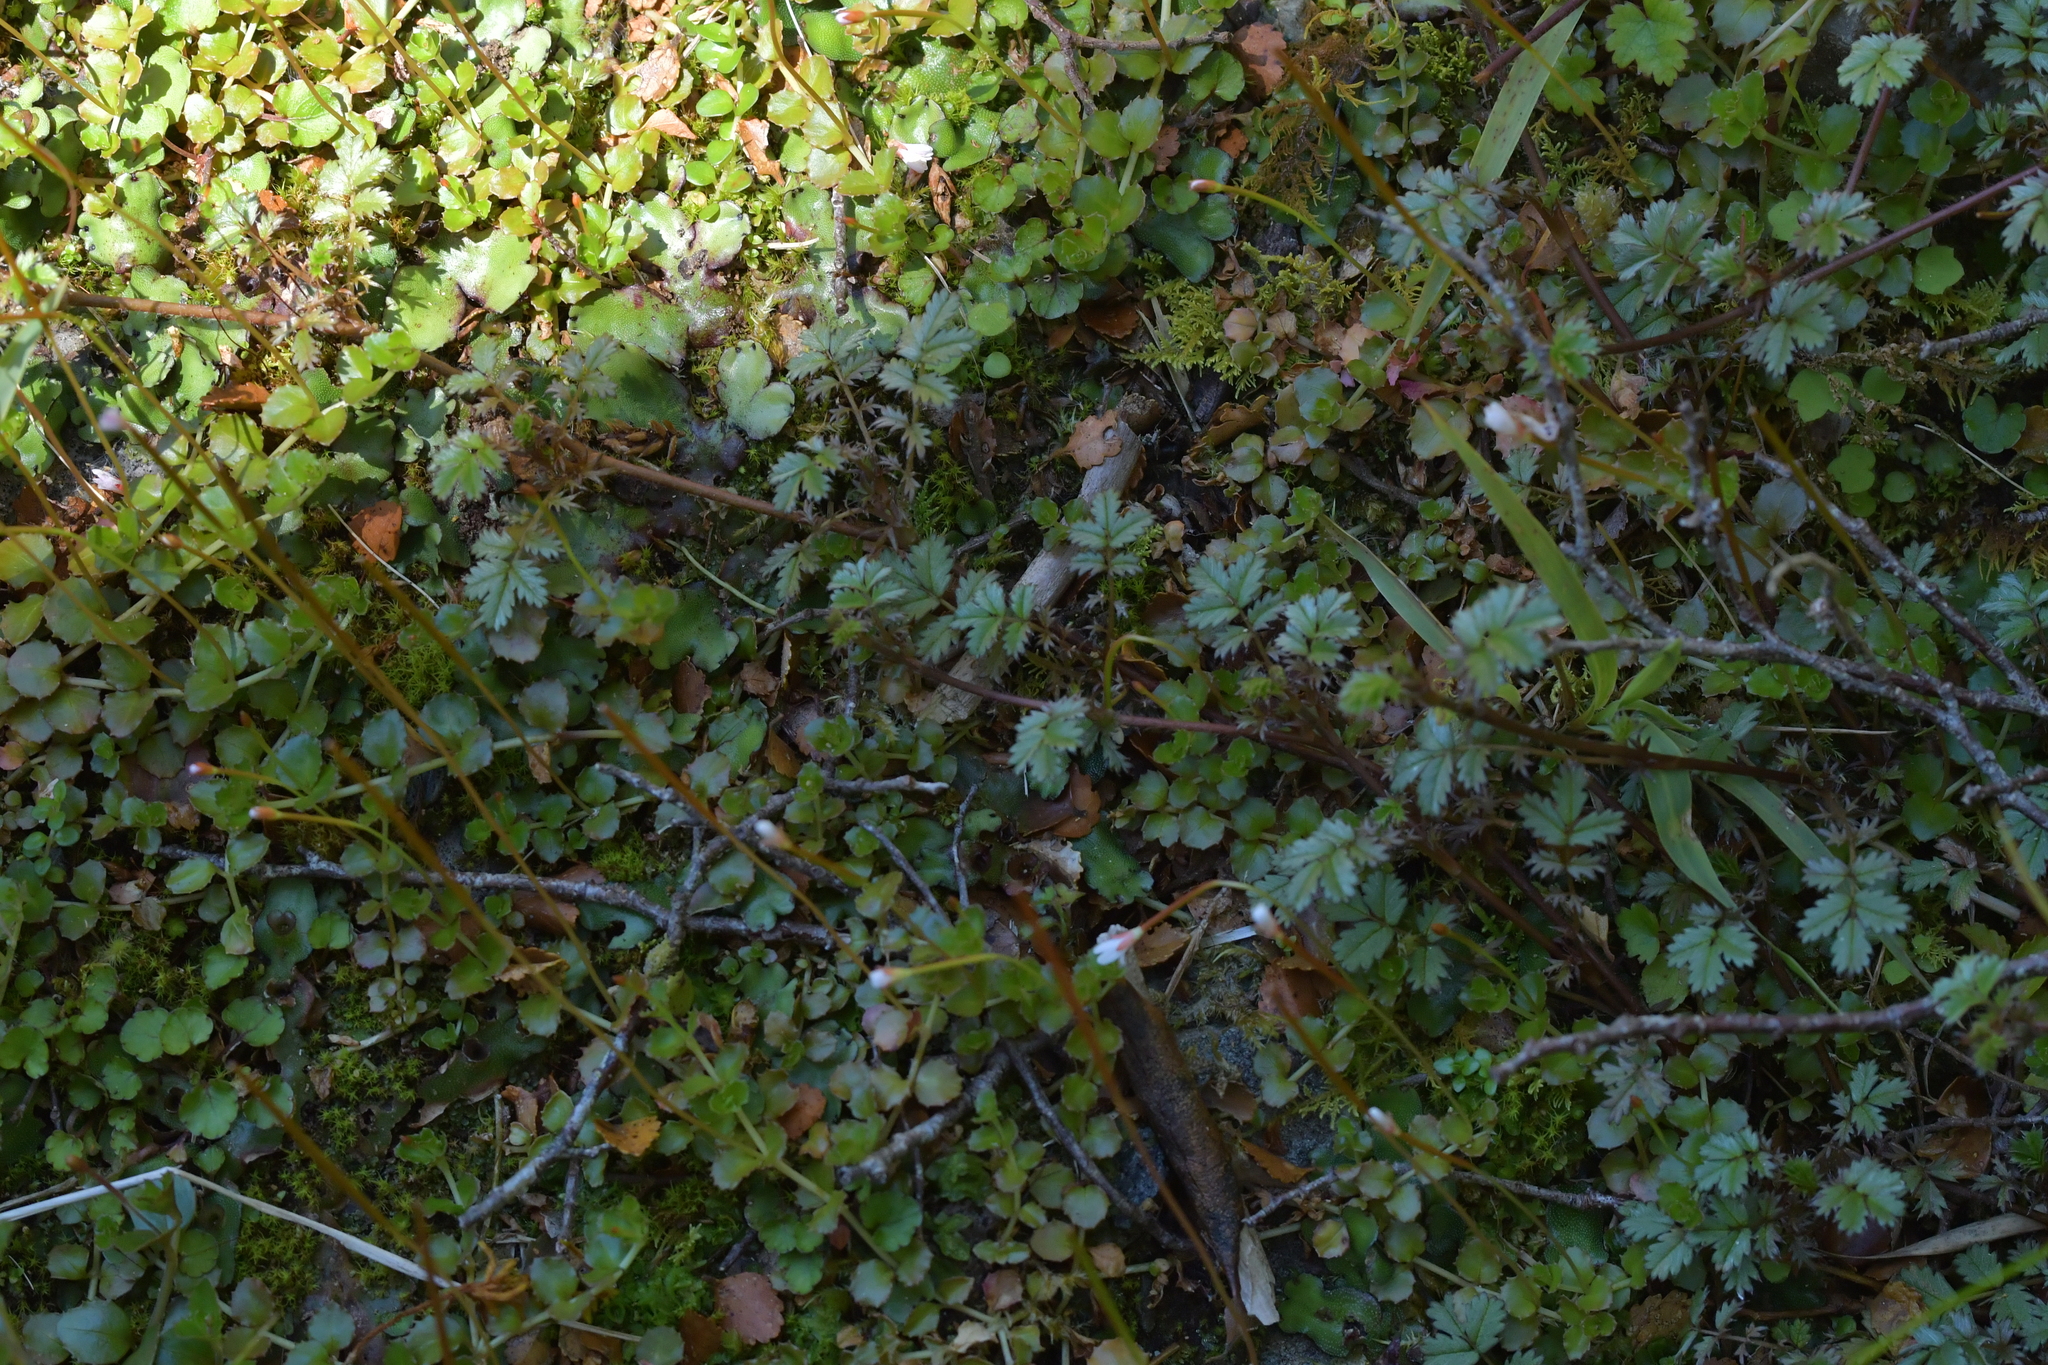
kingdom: Plantae
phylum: Tracheophyta
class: Magnoliopsida
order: Rosales
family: Rosaceae
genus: Acaena
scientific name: Acaena anserinifolia
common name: Bronze pirri-pirri-bur
